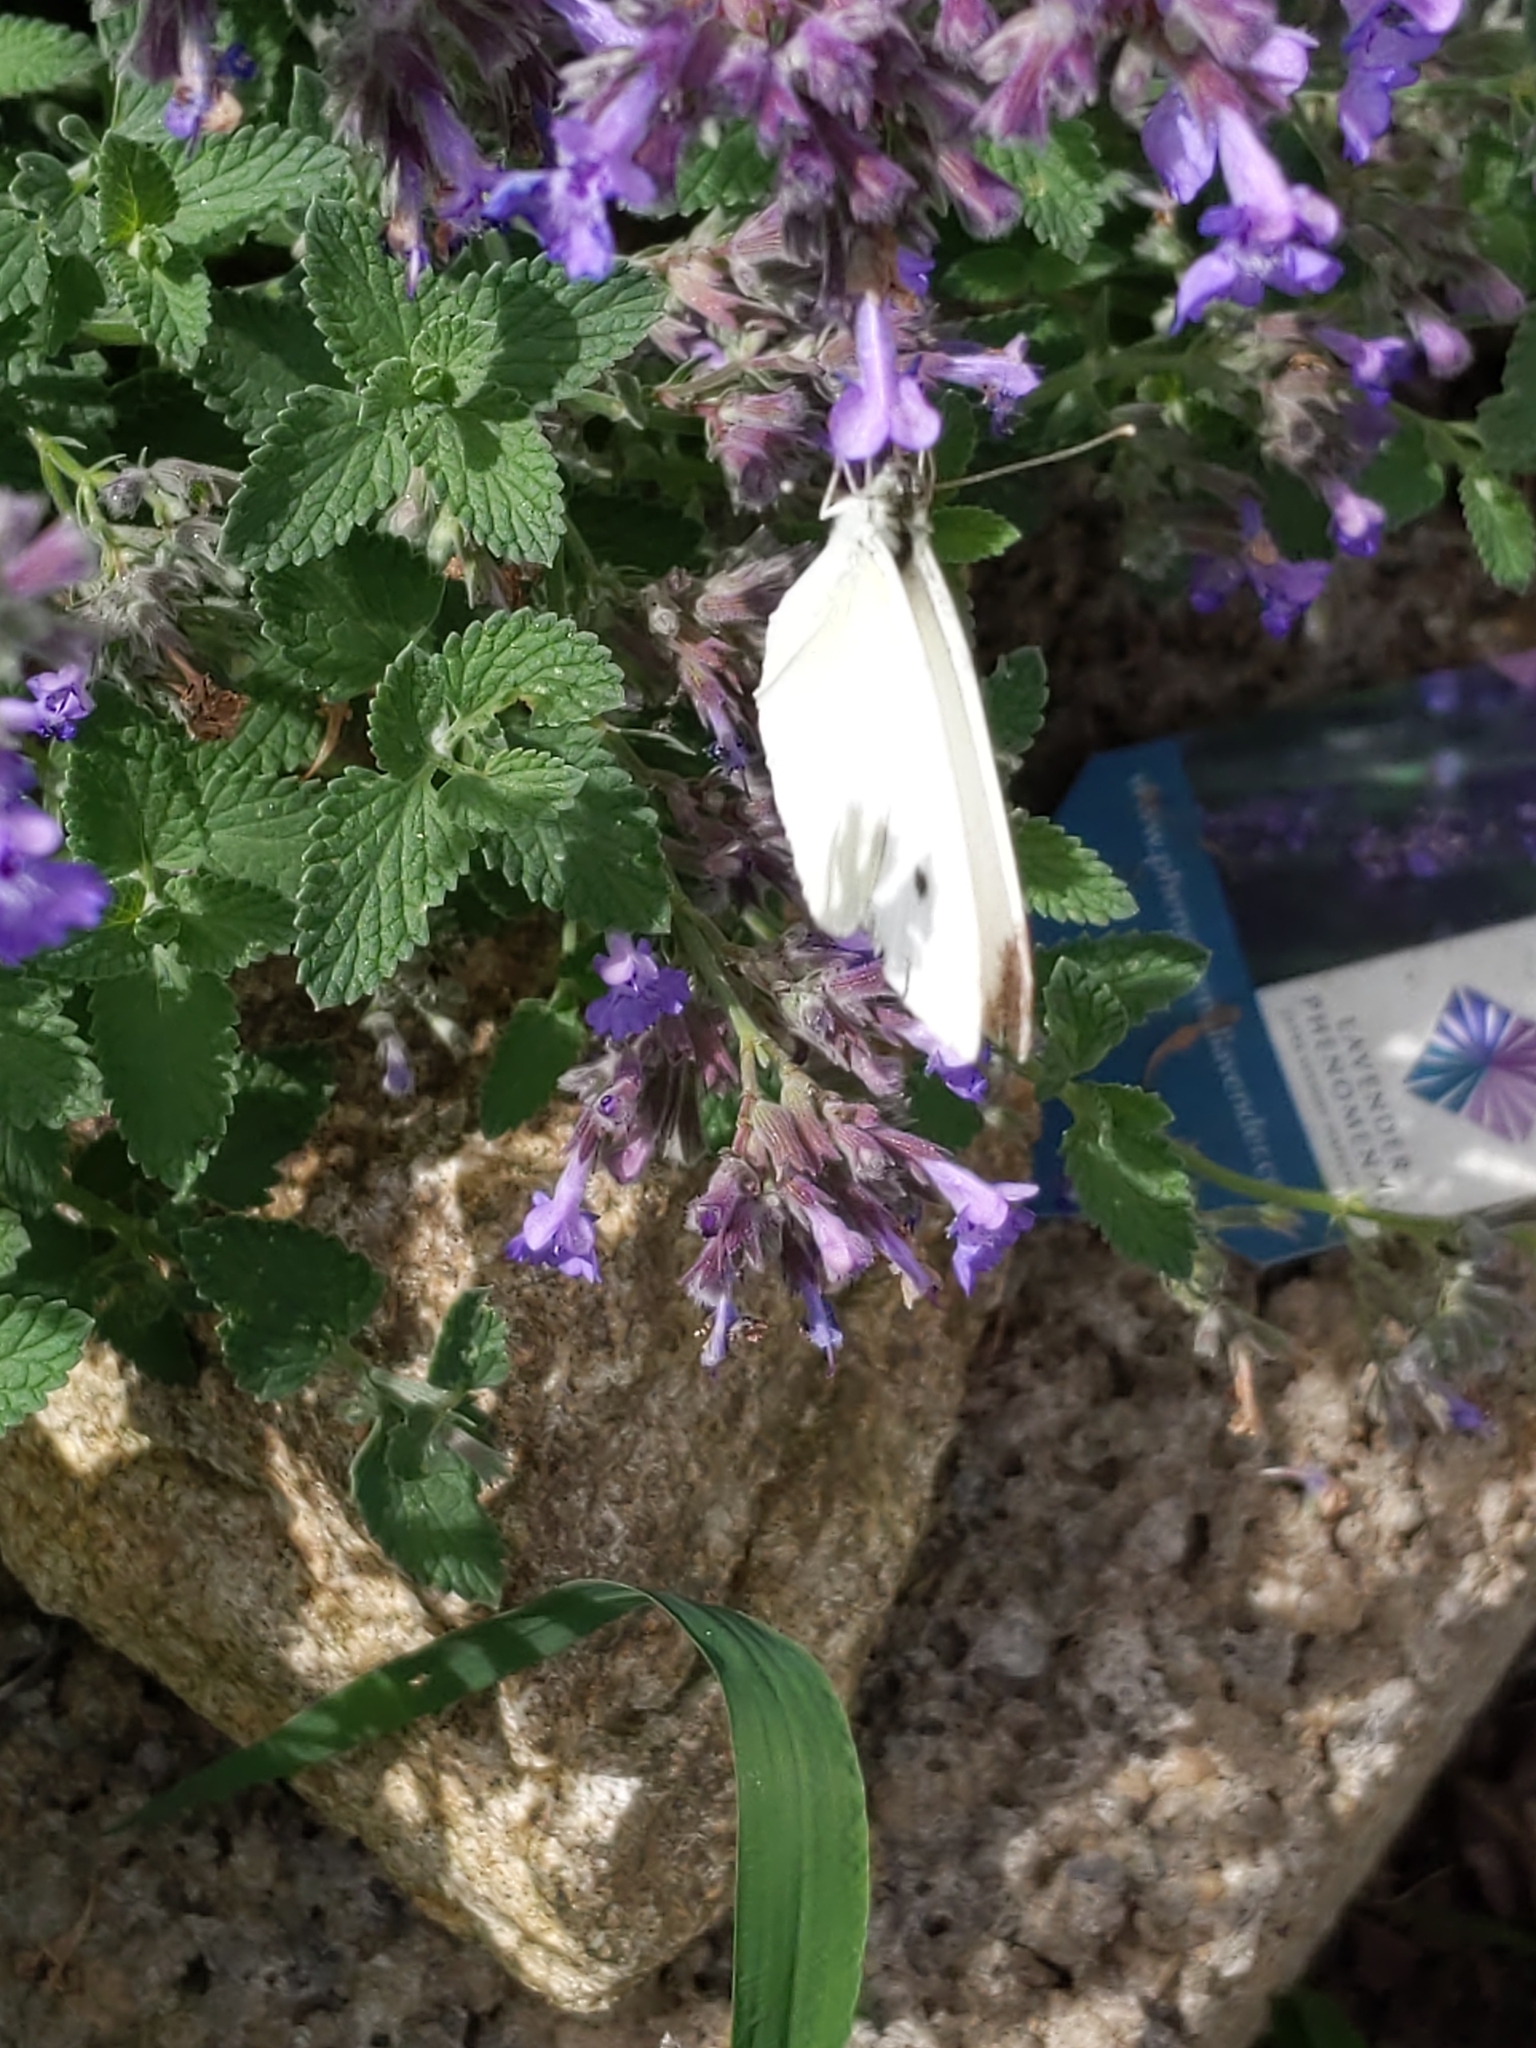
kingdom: Animalia
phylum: Arthropoda
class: Insecta
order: Lepidoptera
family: Pieridae
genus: Pieris
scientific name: Pieris rapae
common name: Small white
